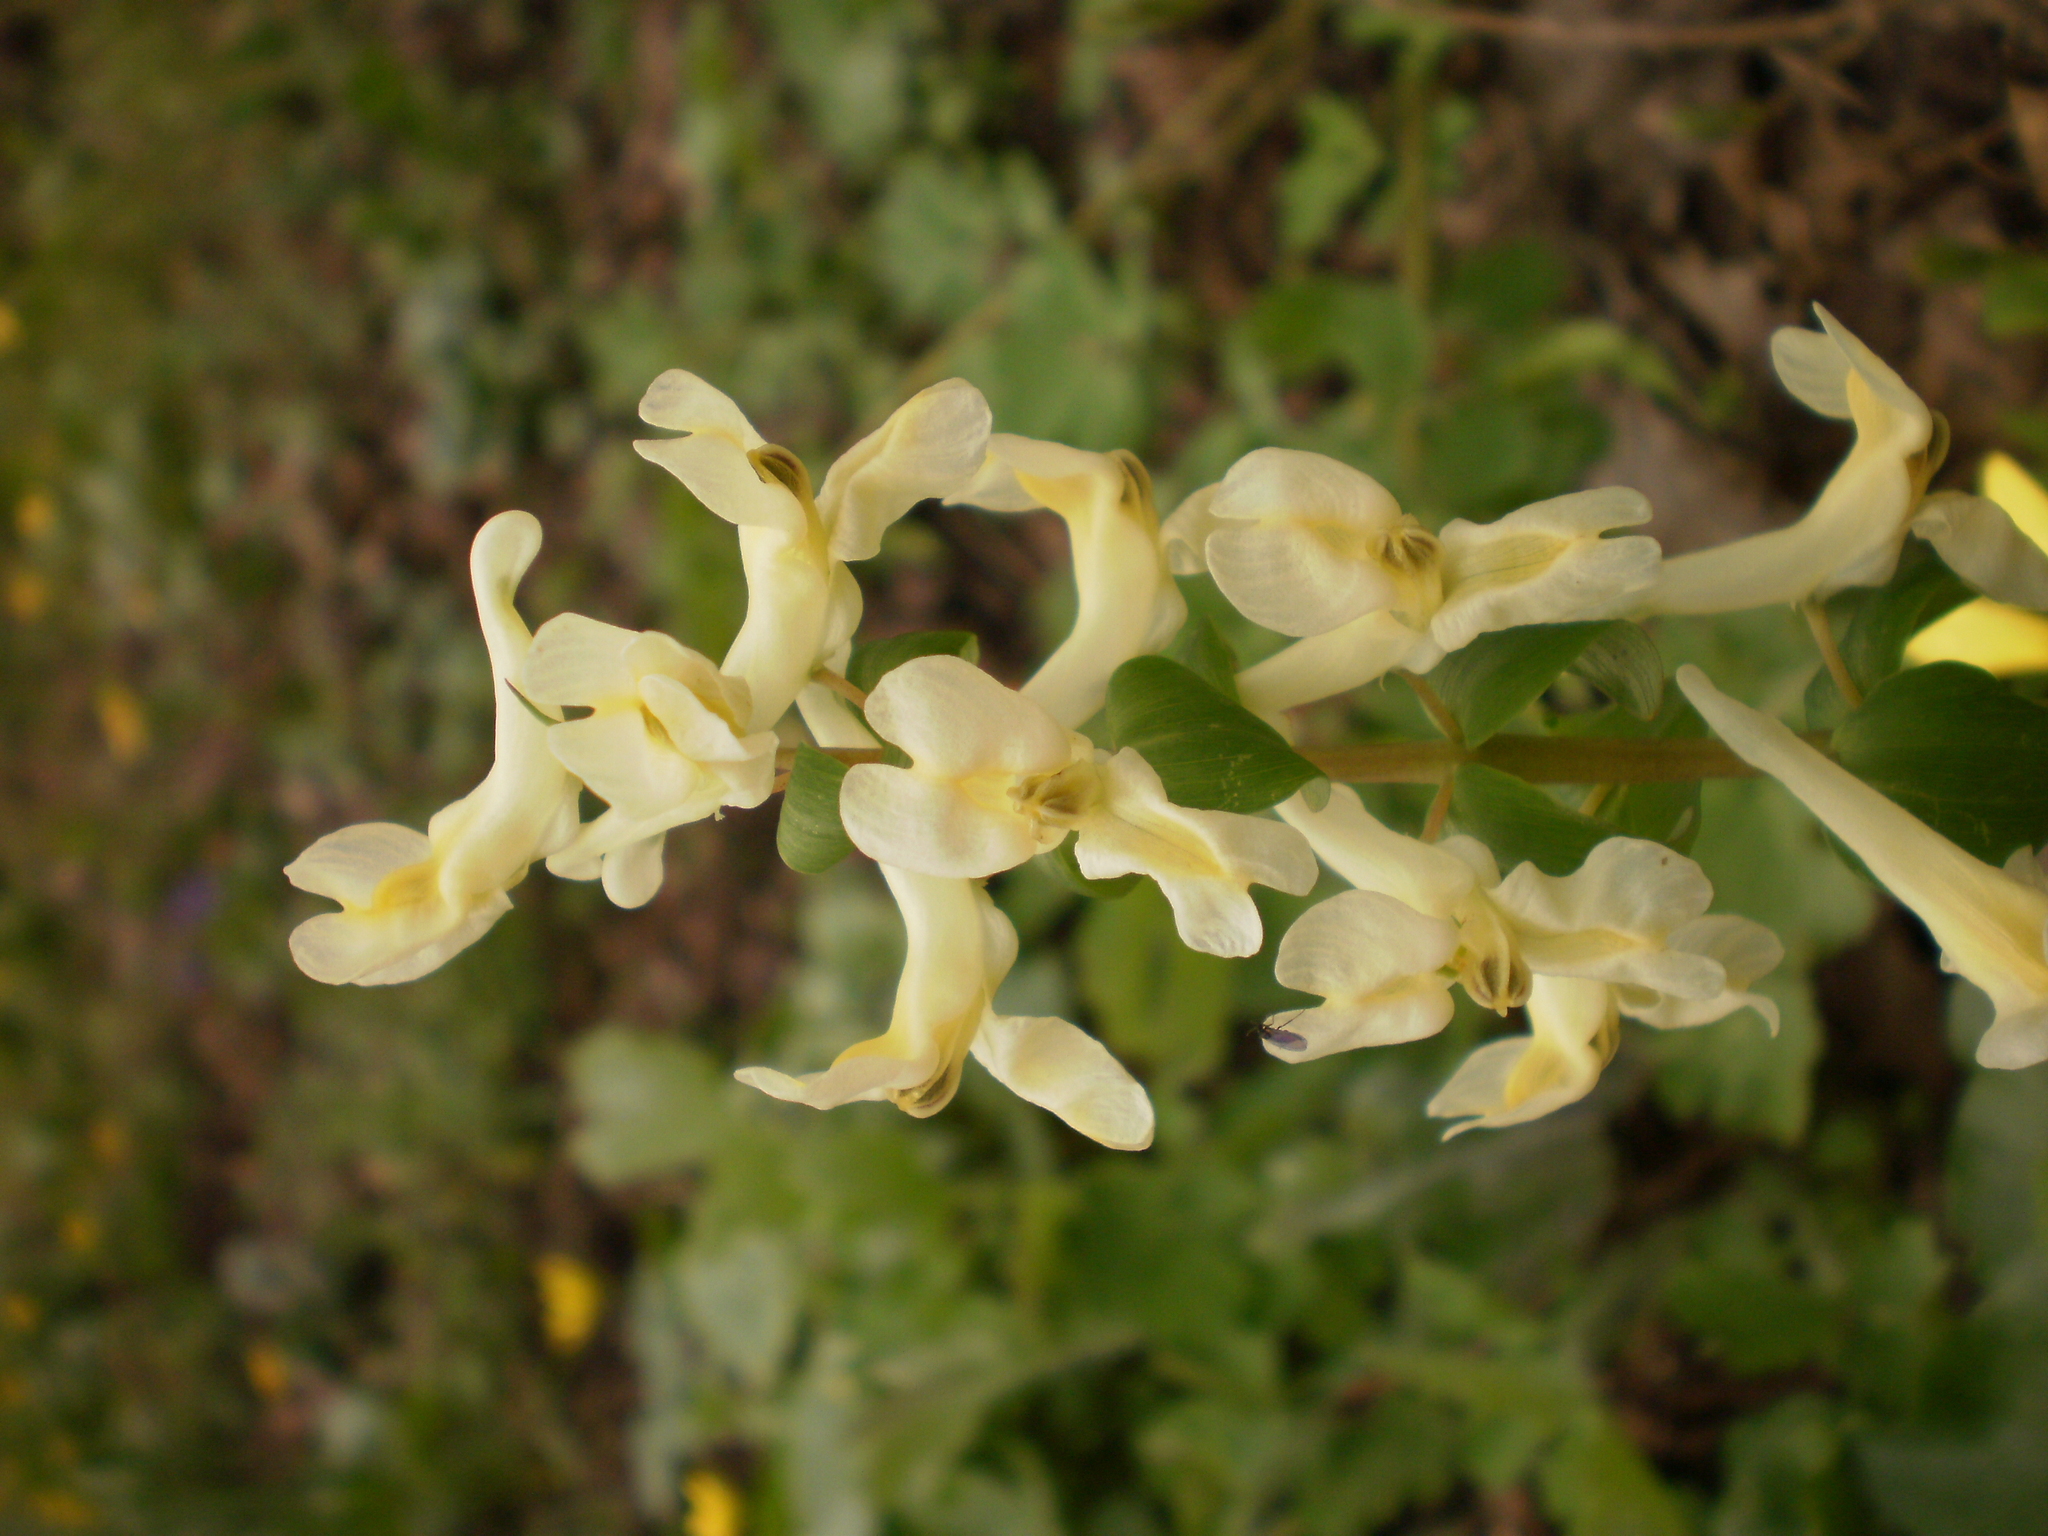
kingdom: Plantae
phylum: Tracheophyta
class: Magnoliopsida
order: Ranunculales
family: Papaveraceae
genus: Corydalis
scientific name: Corydalis cava
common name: Hollowroot
